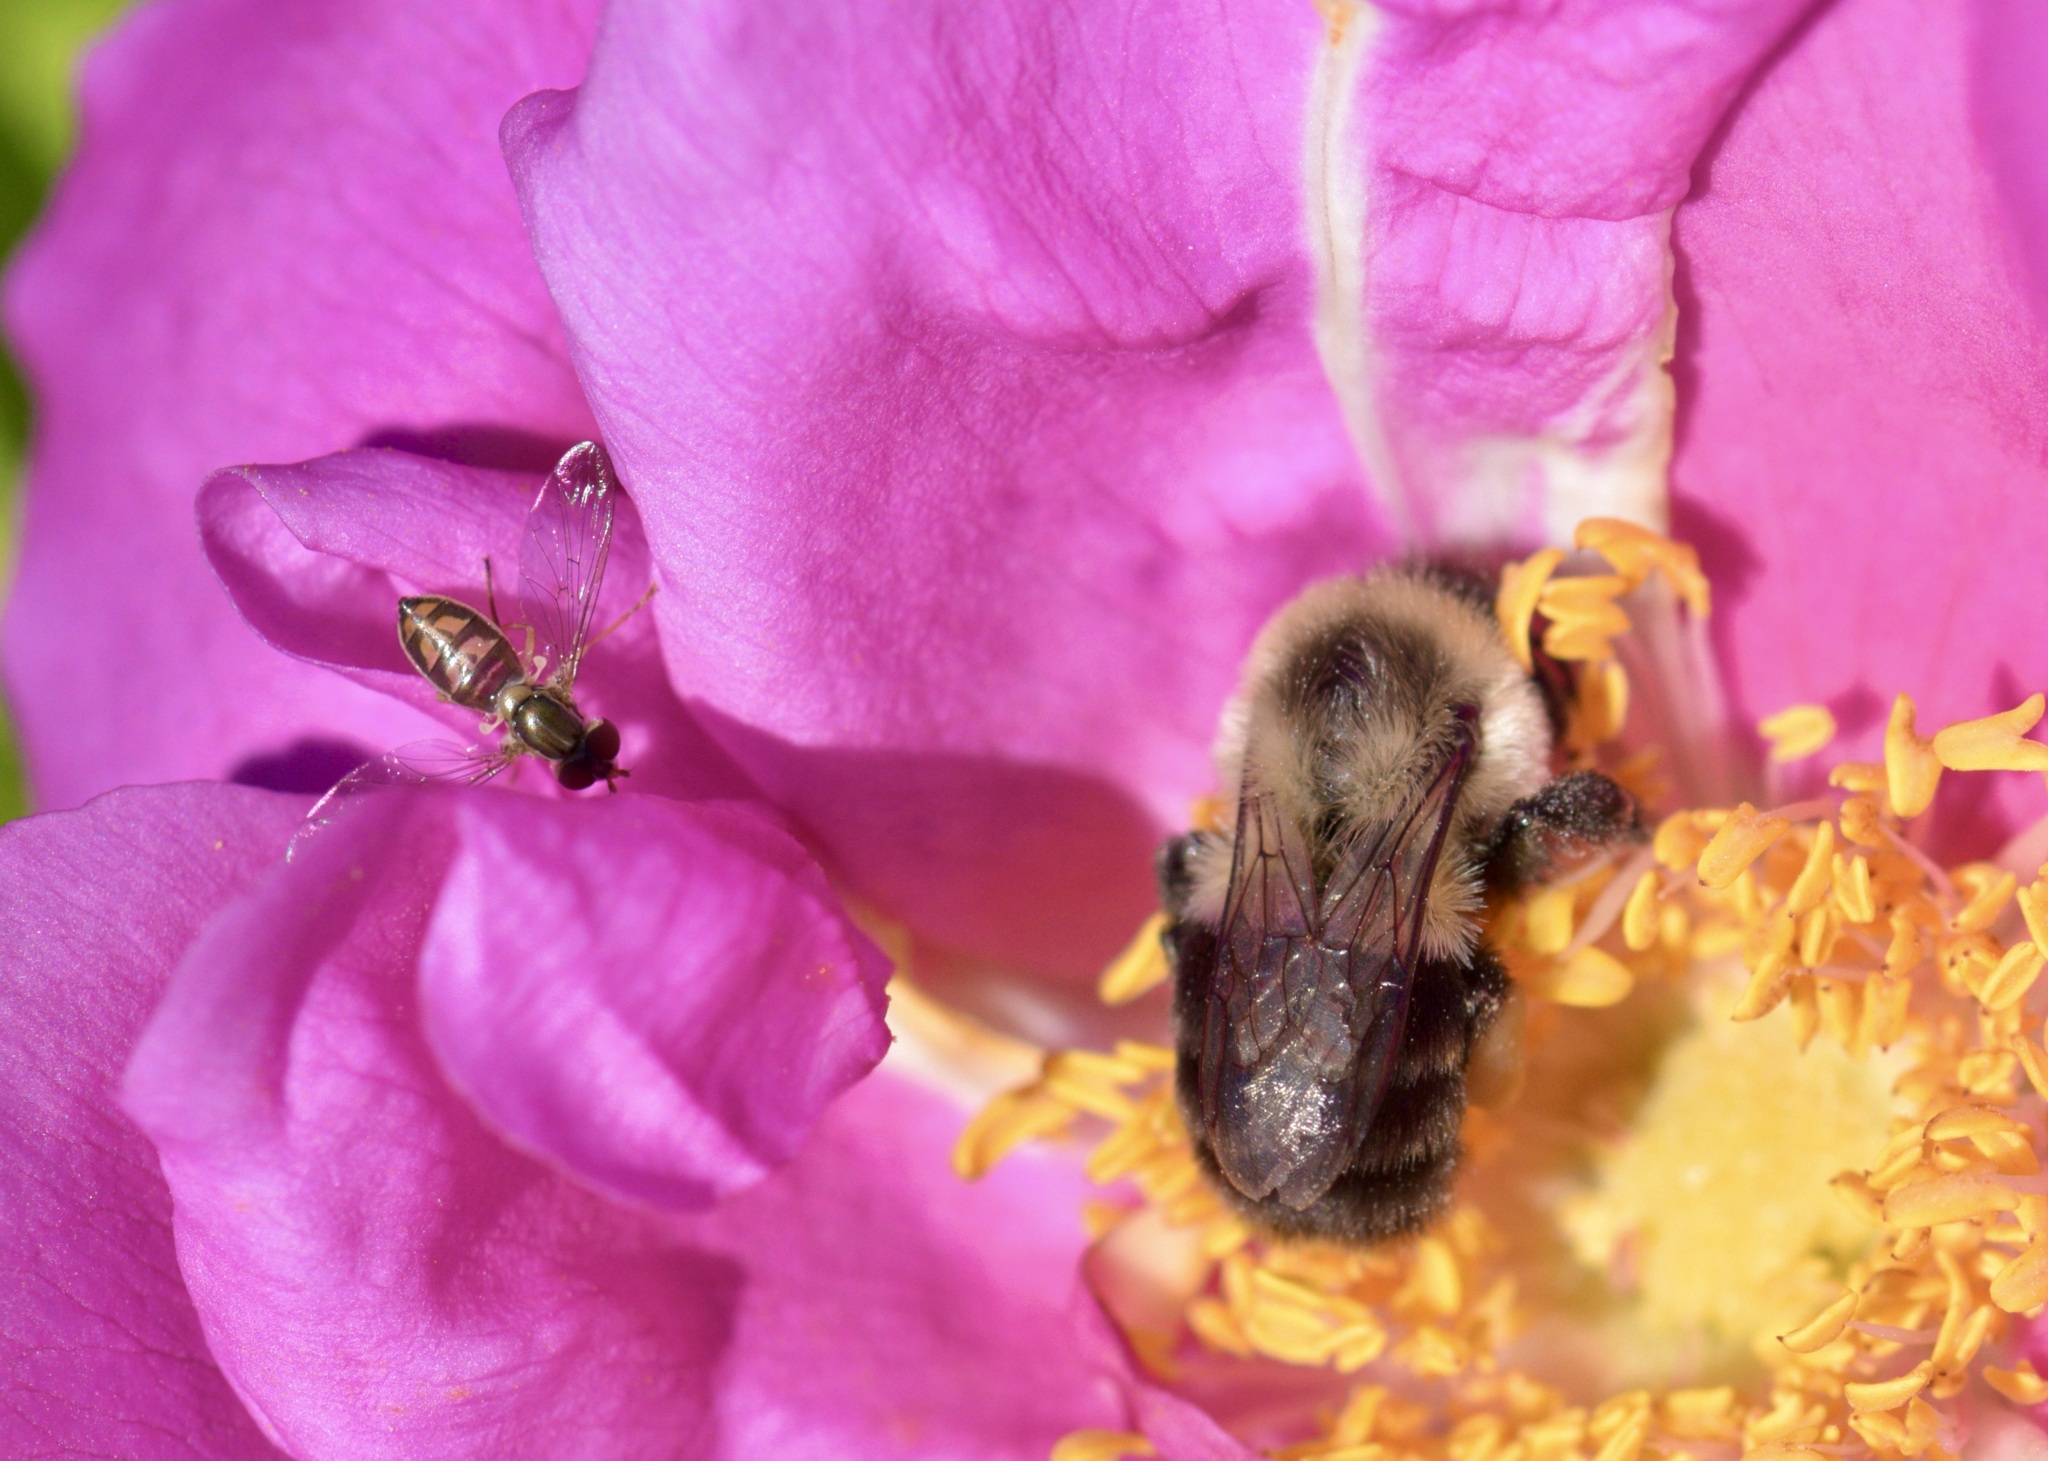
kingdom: Animalia
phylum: Arthropoda
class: Insecta
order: Hymenoptera
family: Apidae
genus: Bombus
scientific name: Bombus impatiens
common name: Common eastern bumble bee
